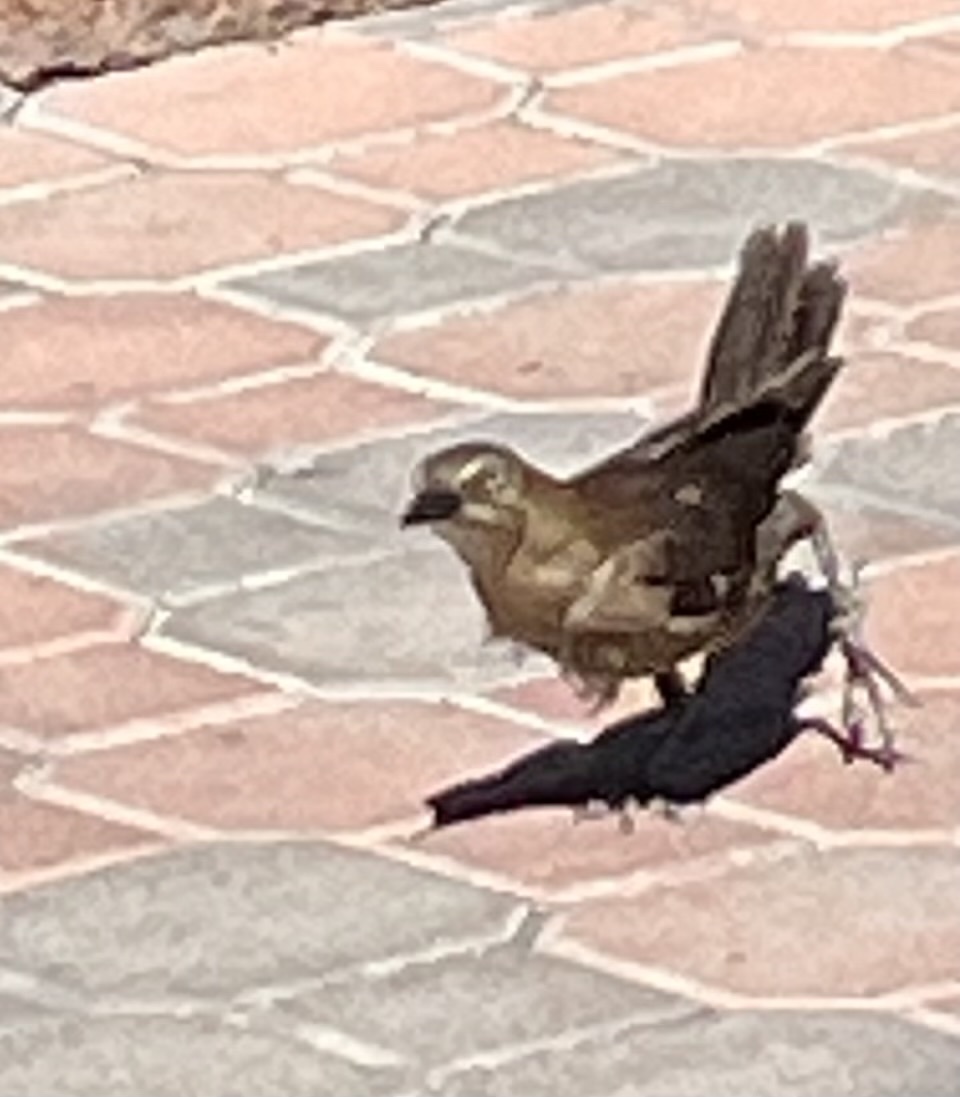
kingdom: Animalia
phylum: Chordata
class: Aves
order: Passeriformes
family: Icteridae
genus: Quiscalus
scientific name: Quiscalus mexicanus
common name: Great-tailed grackle
